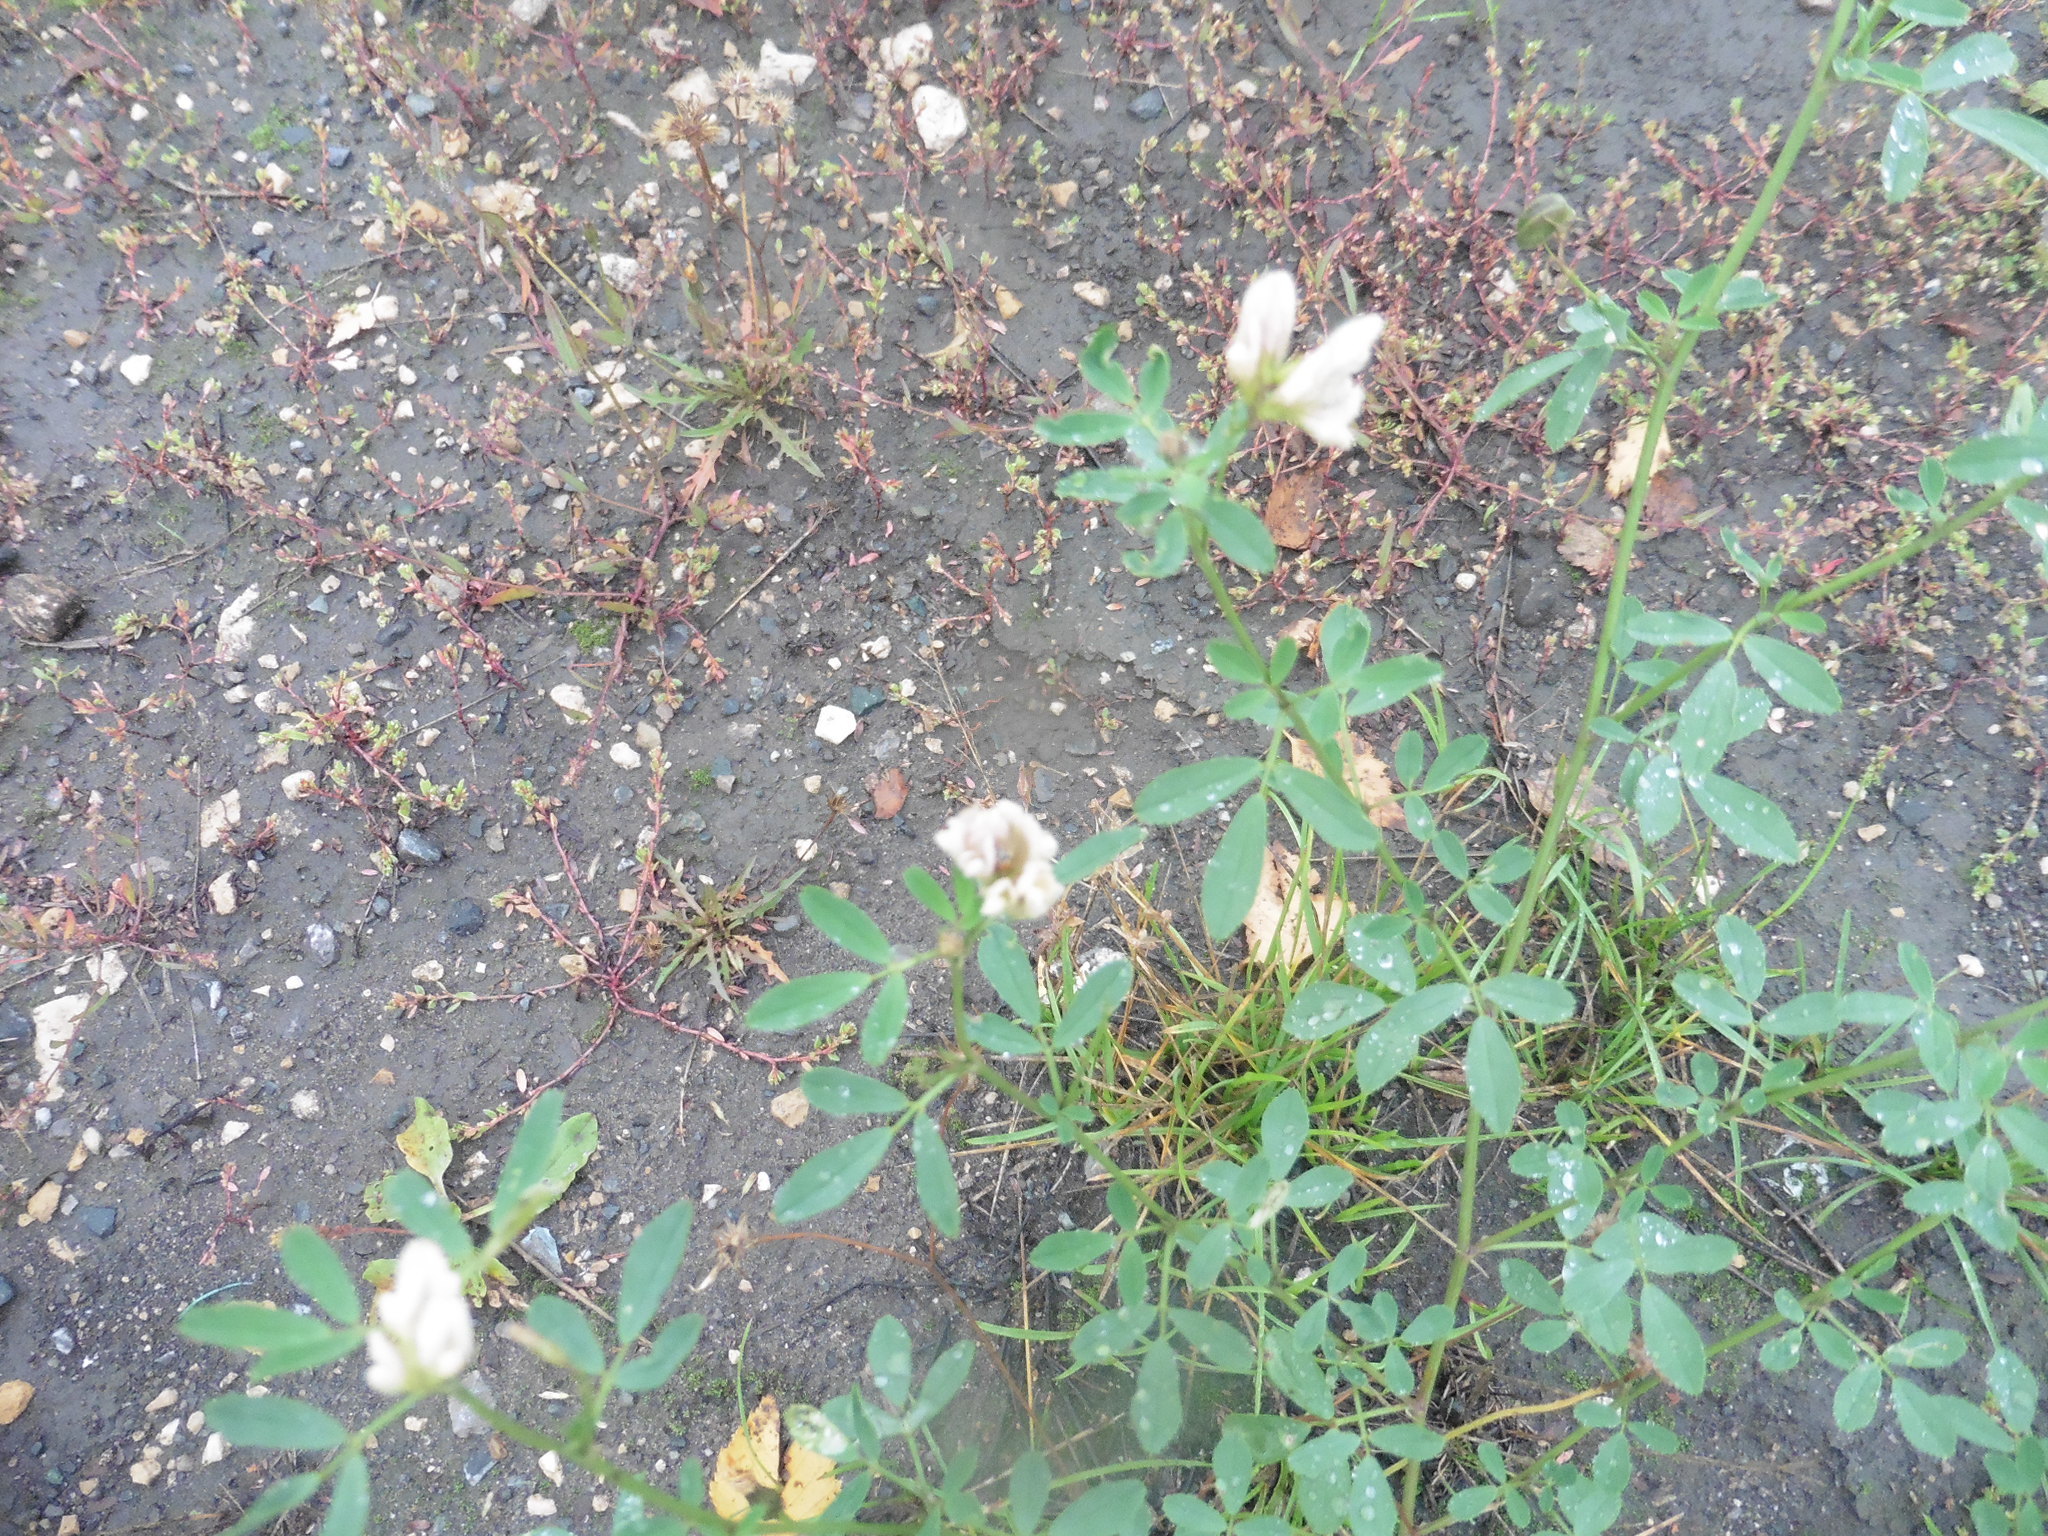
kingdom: Plantae
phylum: Tracheophyta
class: Magnoliopsida
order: Fabales
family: Fabaceae
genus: Medicago
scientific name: Medicago varia
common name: Sand lucerne
